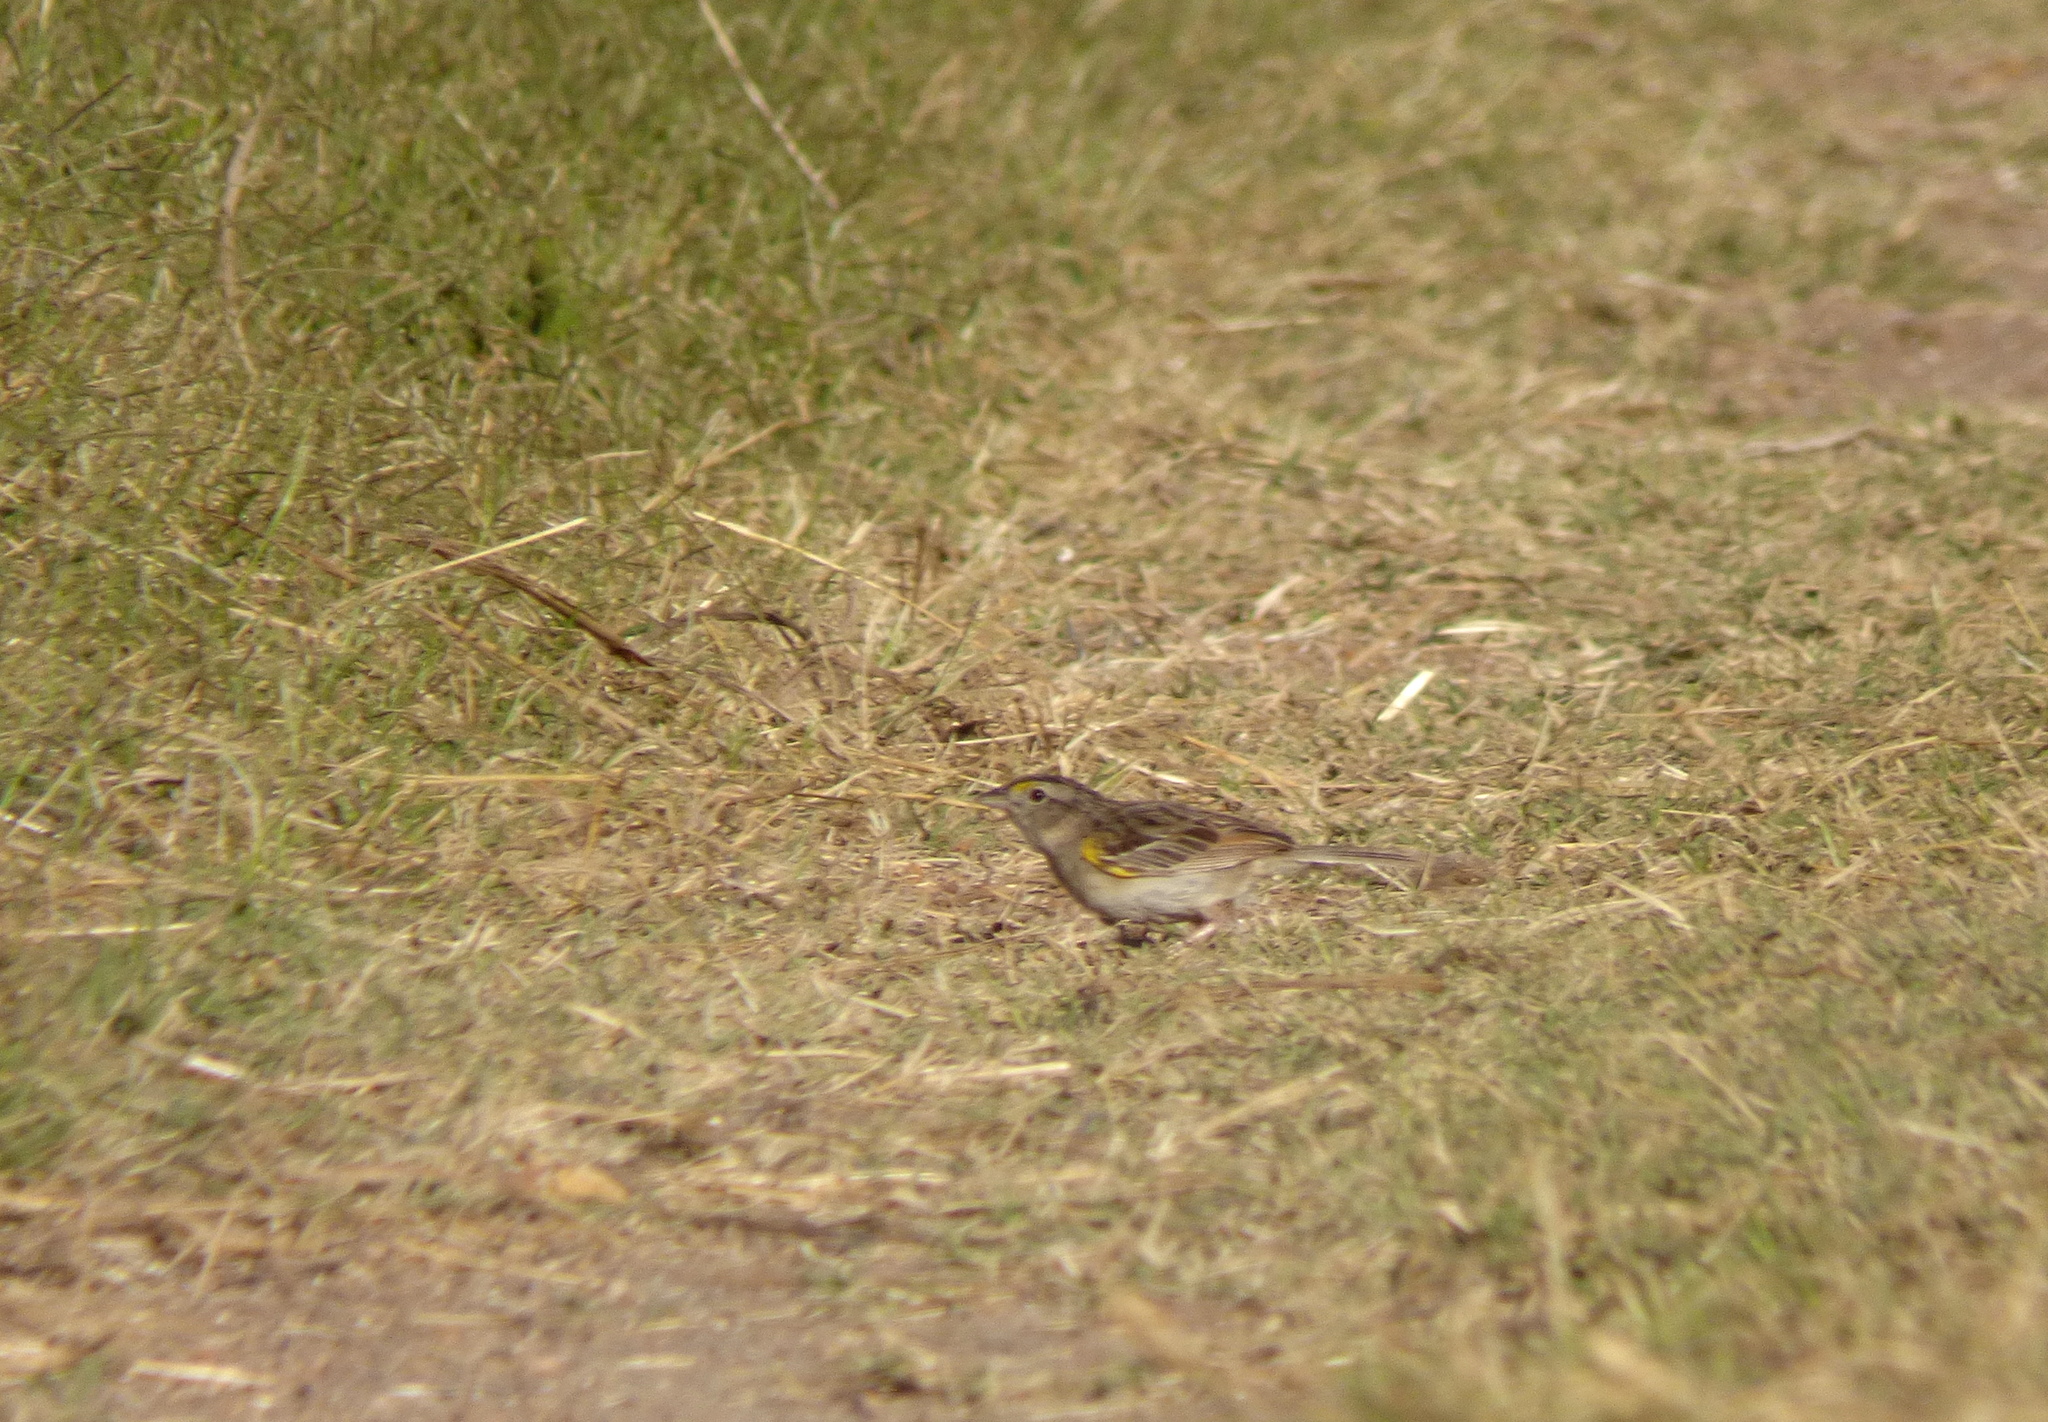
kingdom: Animalia
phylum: Chordata
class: Aves
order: Passeriformes
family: Passerellidae
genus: Ammodramus
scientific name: Ammodramus humeralis
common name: Grassland sparrow
